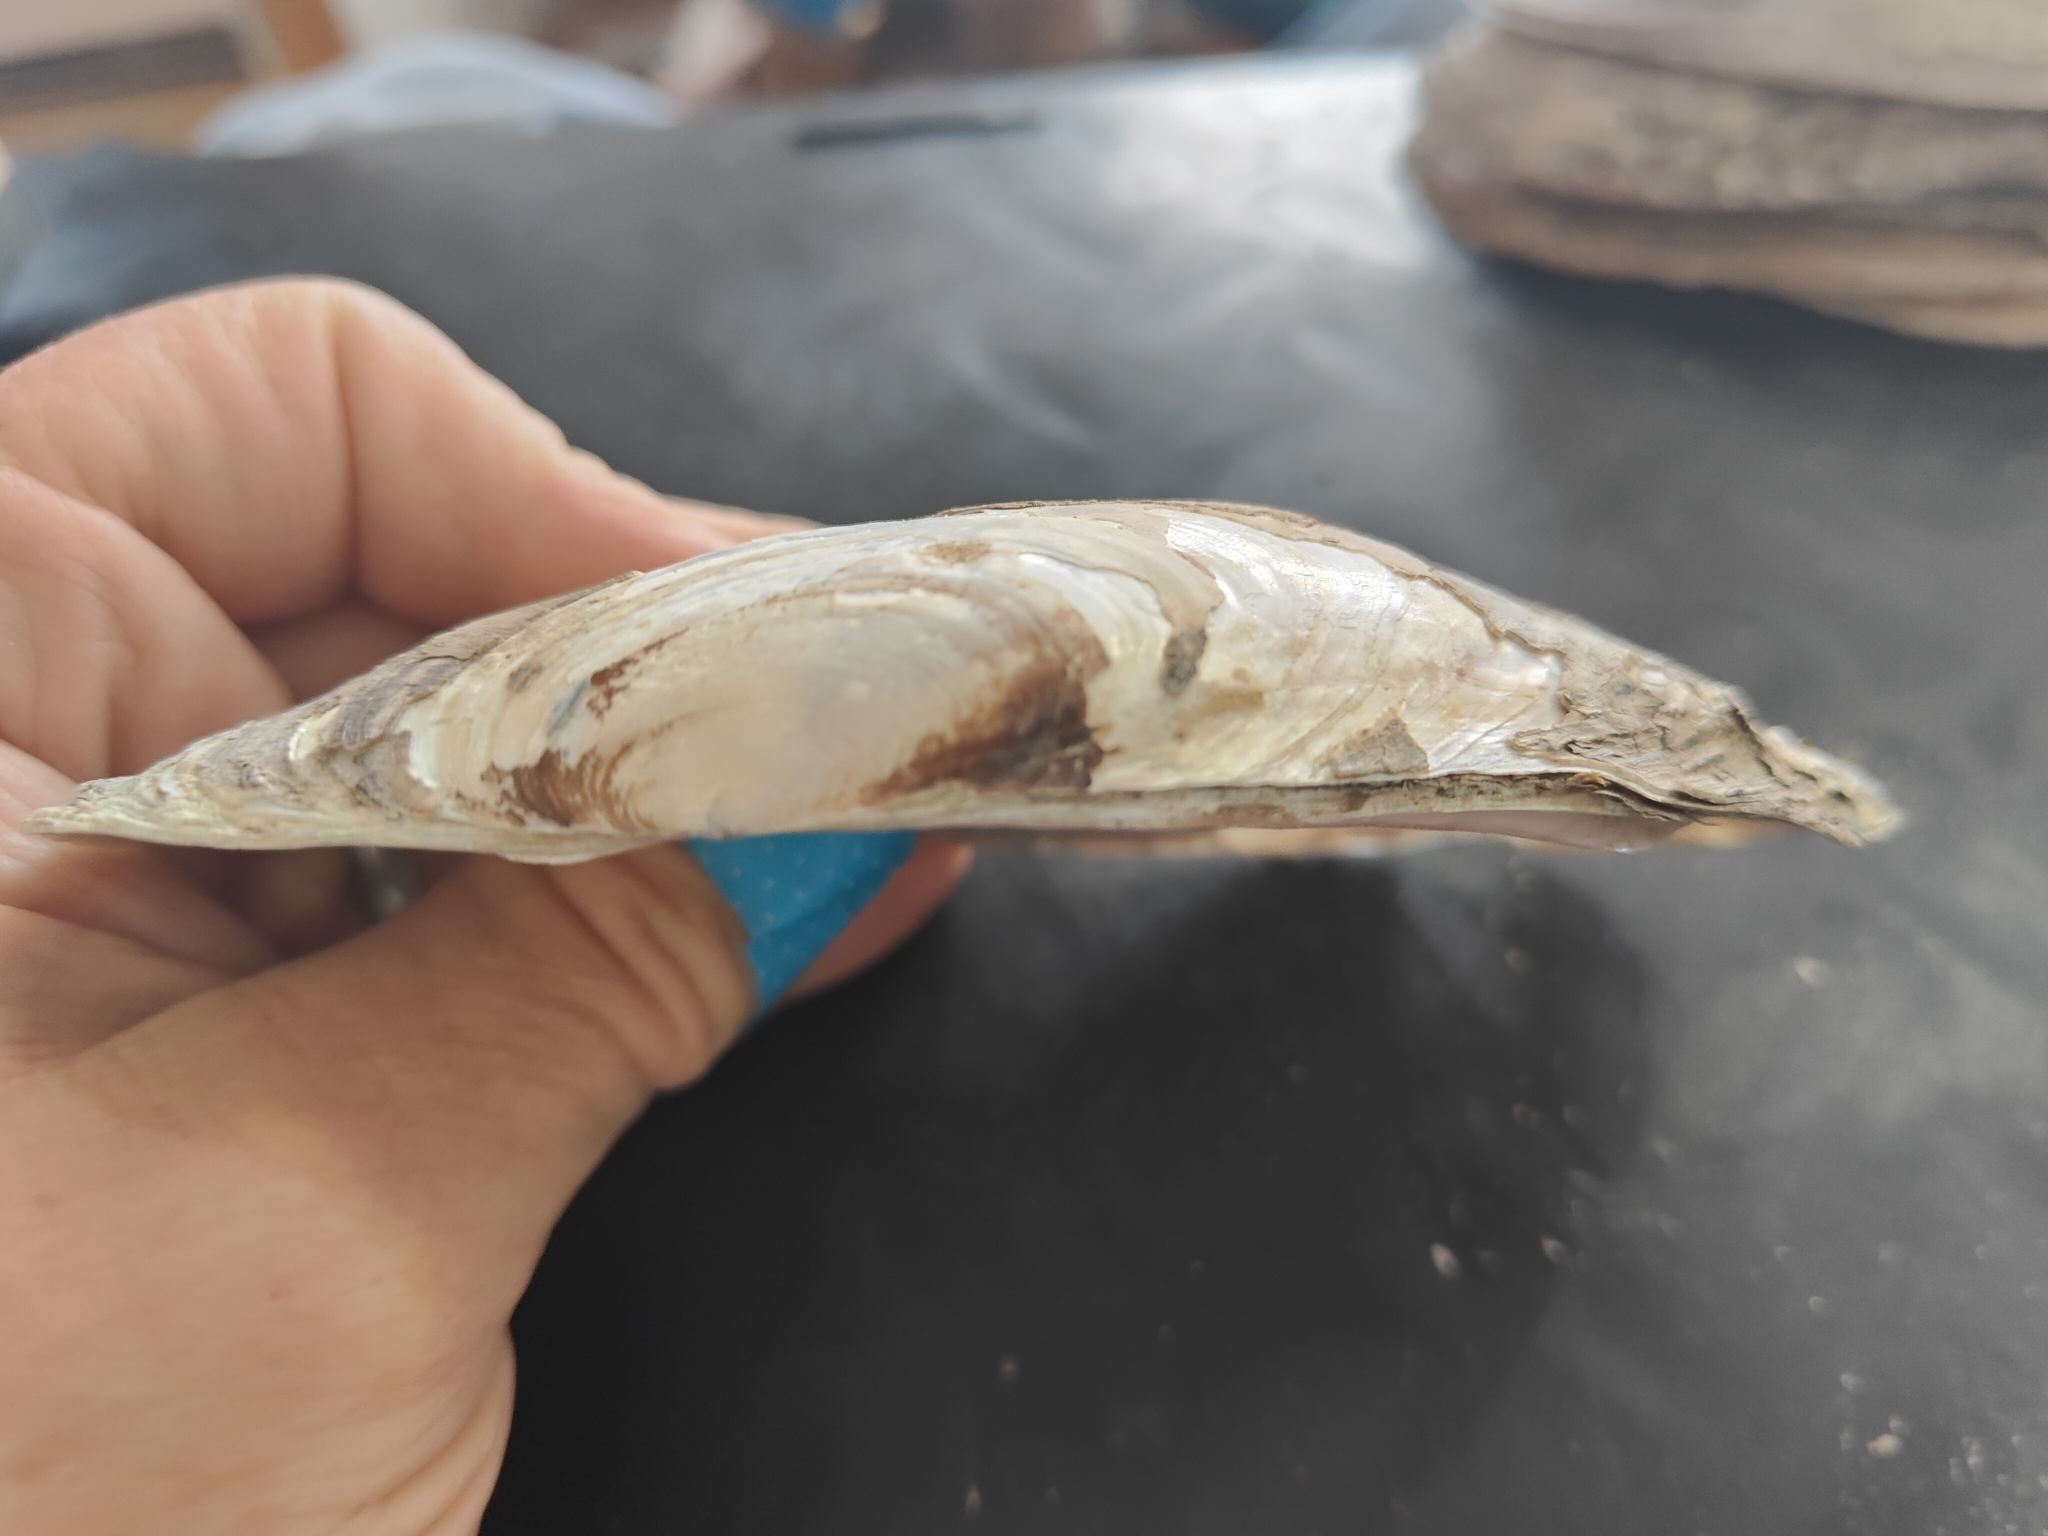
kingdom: Animalia
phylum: Mollusca
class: Bivalvia
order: Unionida
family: Unionidae
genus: Potamilus
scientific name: Potamilus fragilis
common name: Fragile papershell
